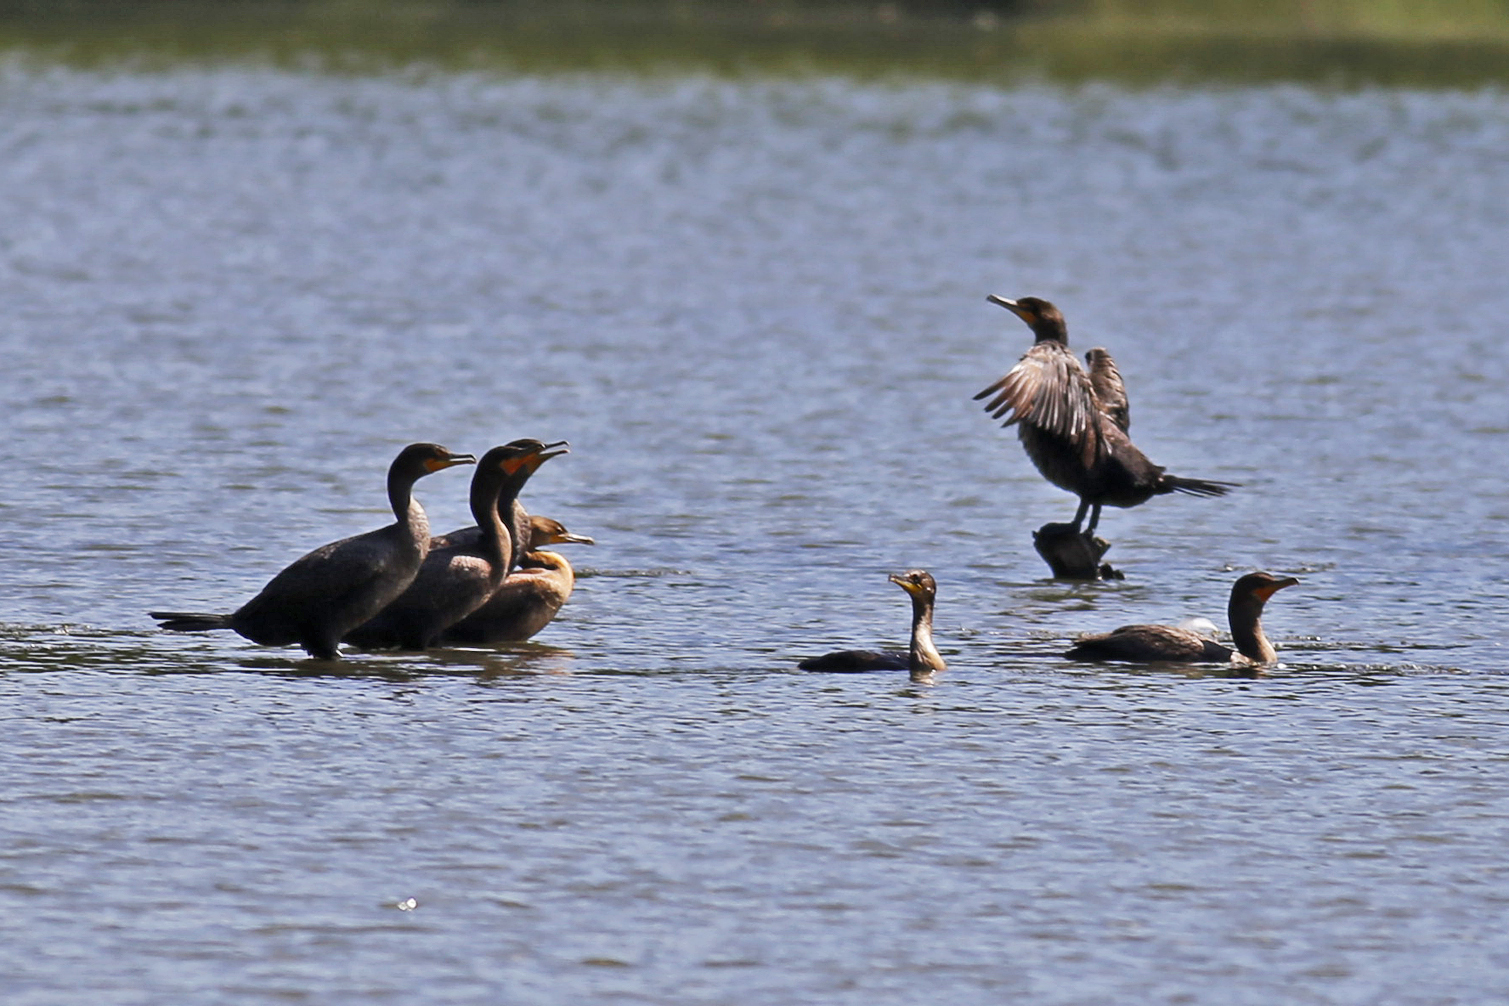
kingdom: Animalia
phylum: Chordata
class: Aves
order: Suliformes
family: Phalacrocoracidae
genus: Phalacrocorax
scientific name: Phalacrocorax auritus
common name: Double-crested cormorant
